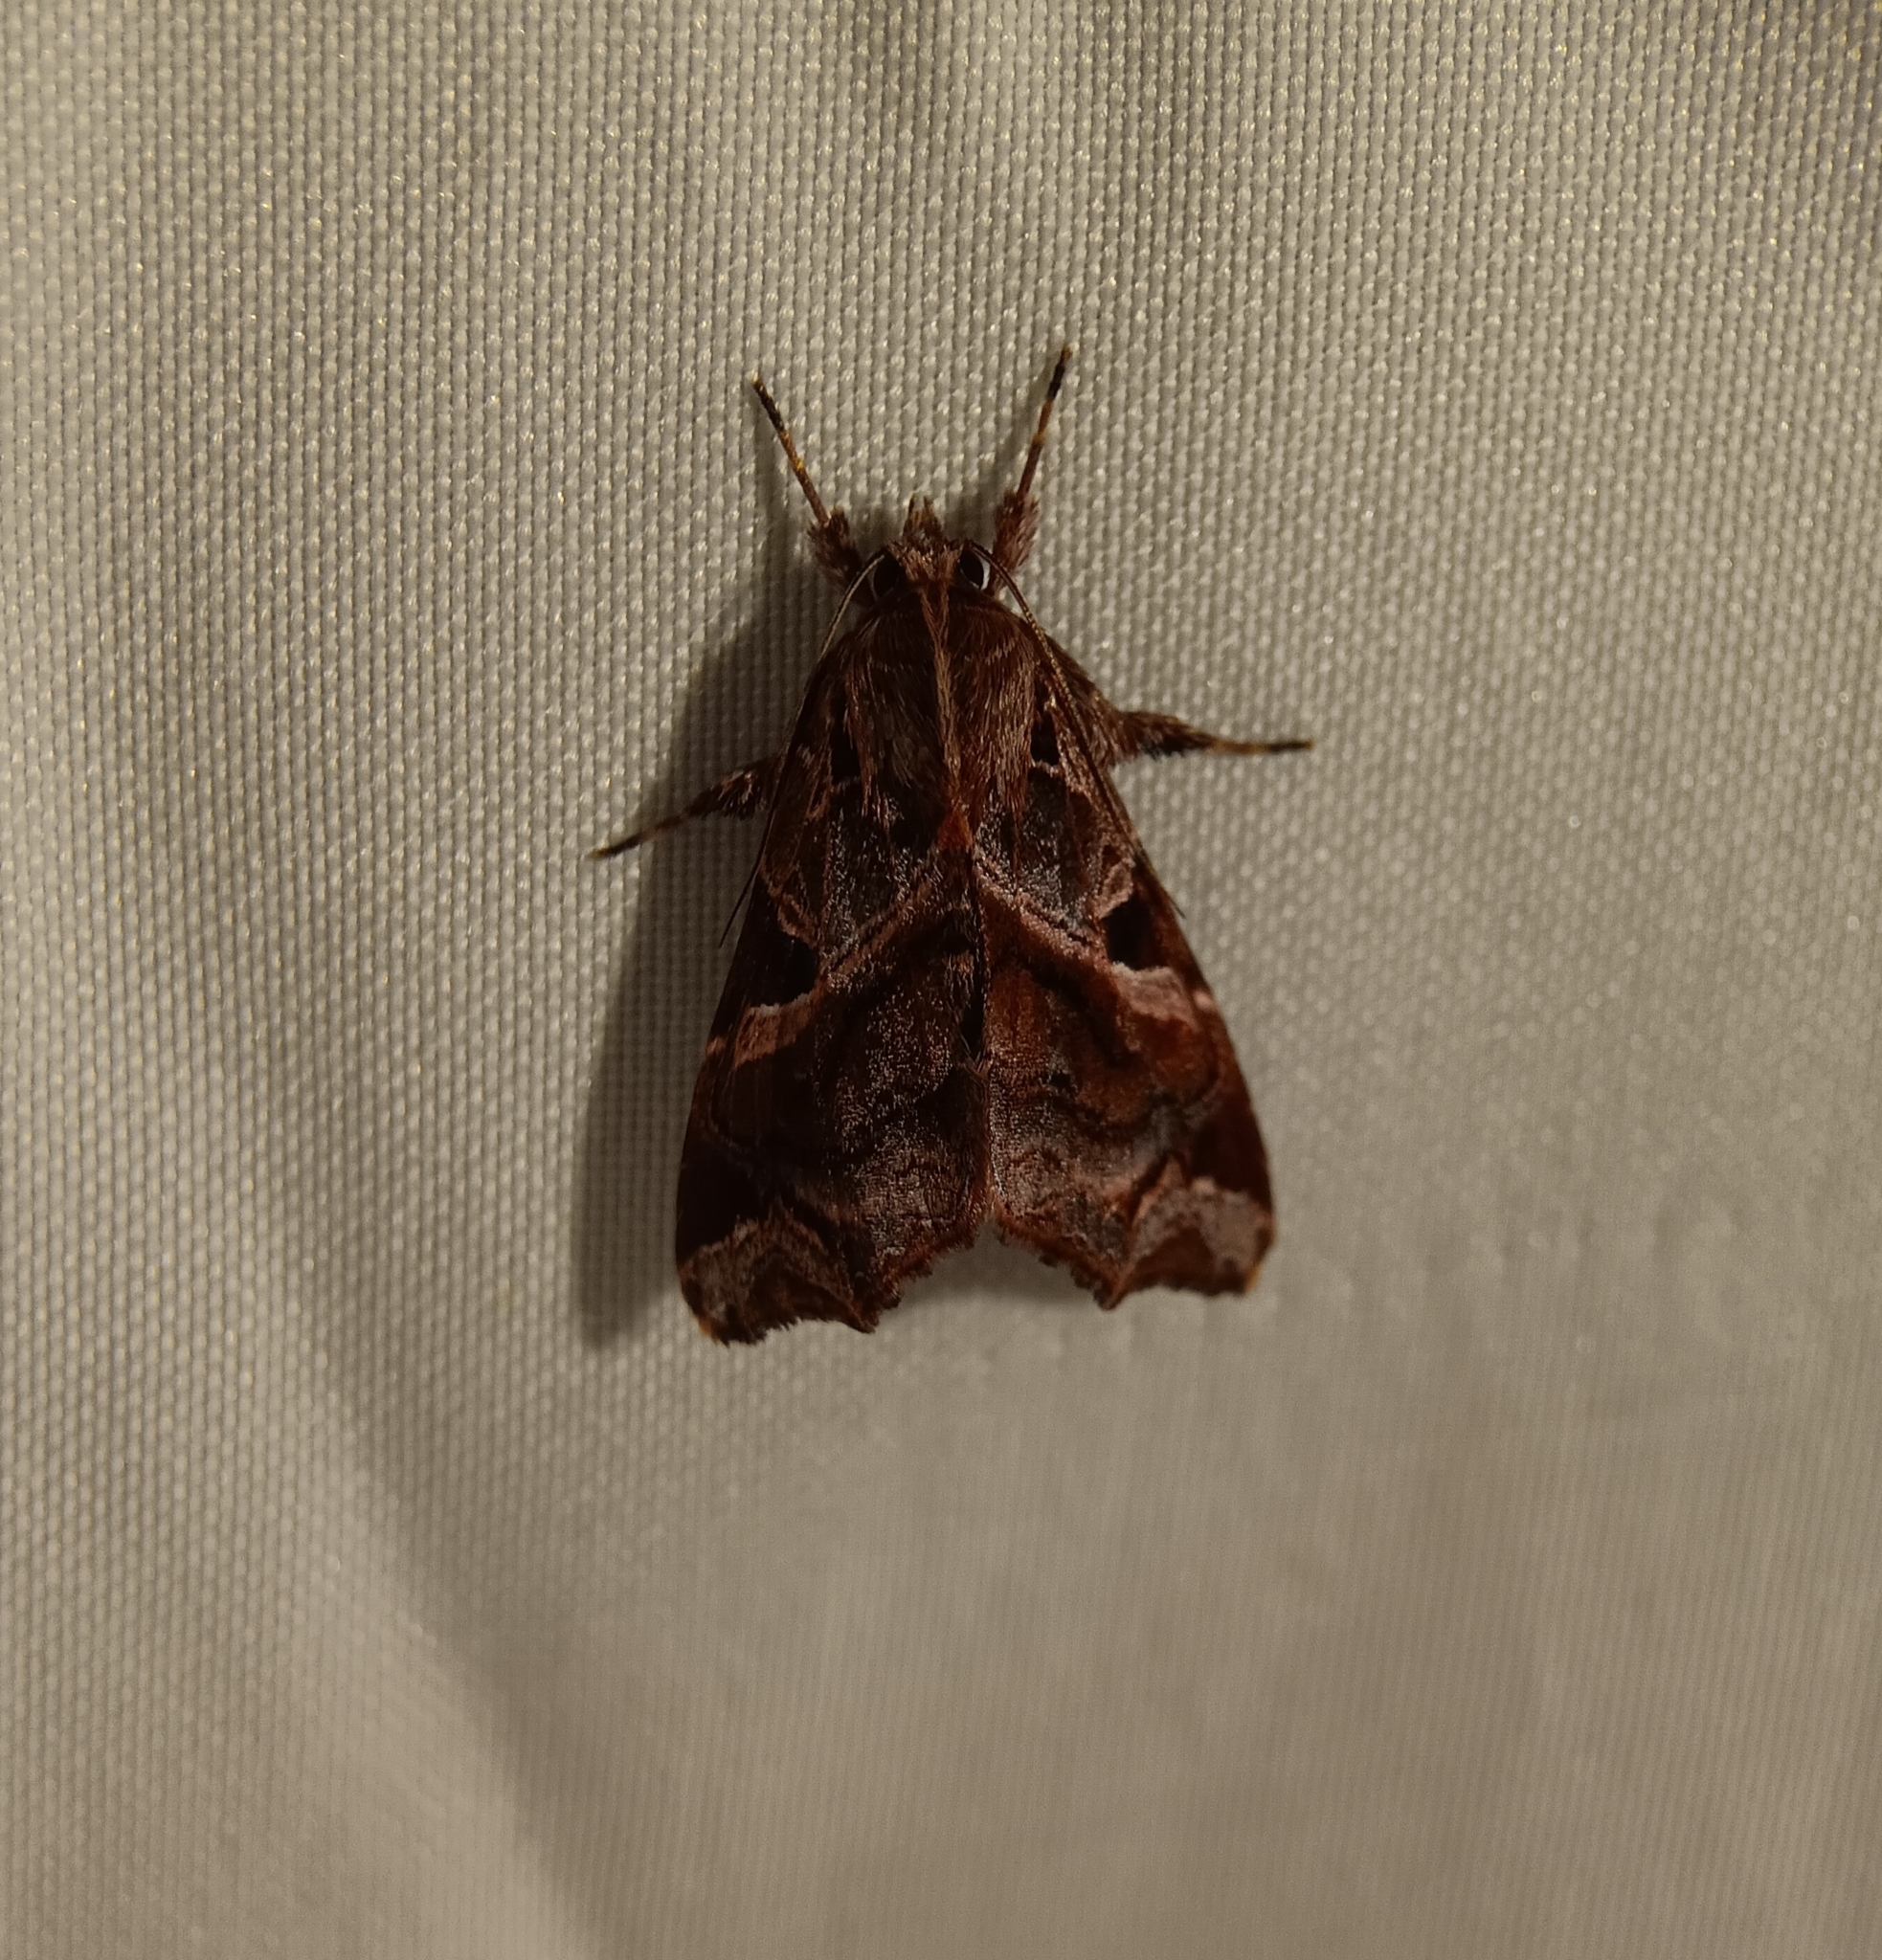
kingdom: Animalia
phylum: Arthropoda
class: Insecta
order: Lepidoptera
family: Noctuidae
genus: Callopistria
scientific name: Callopistria floridensis
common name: Florida fern moth
